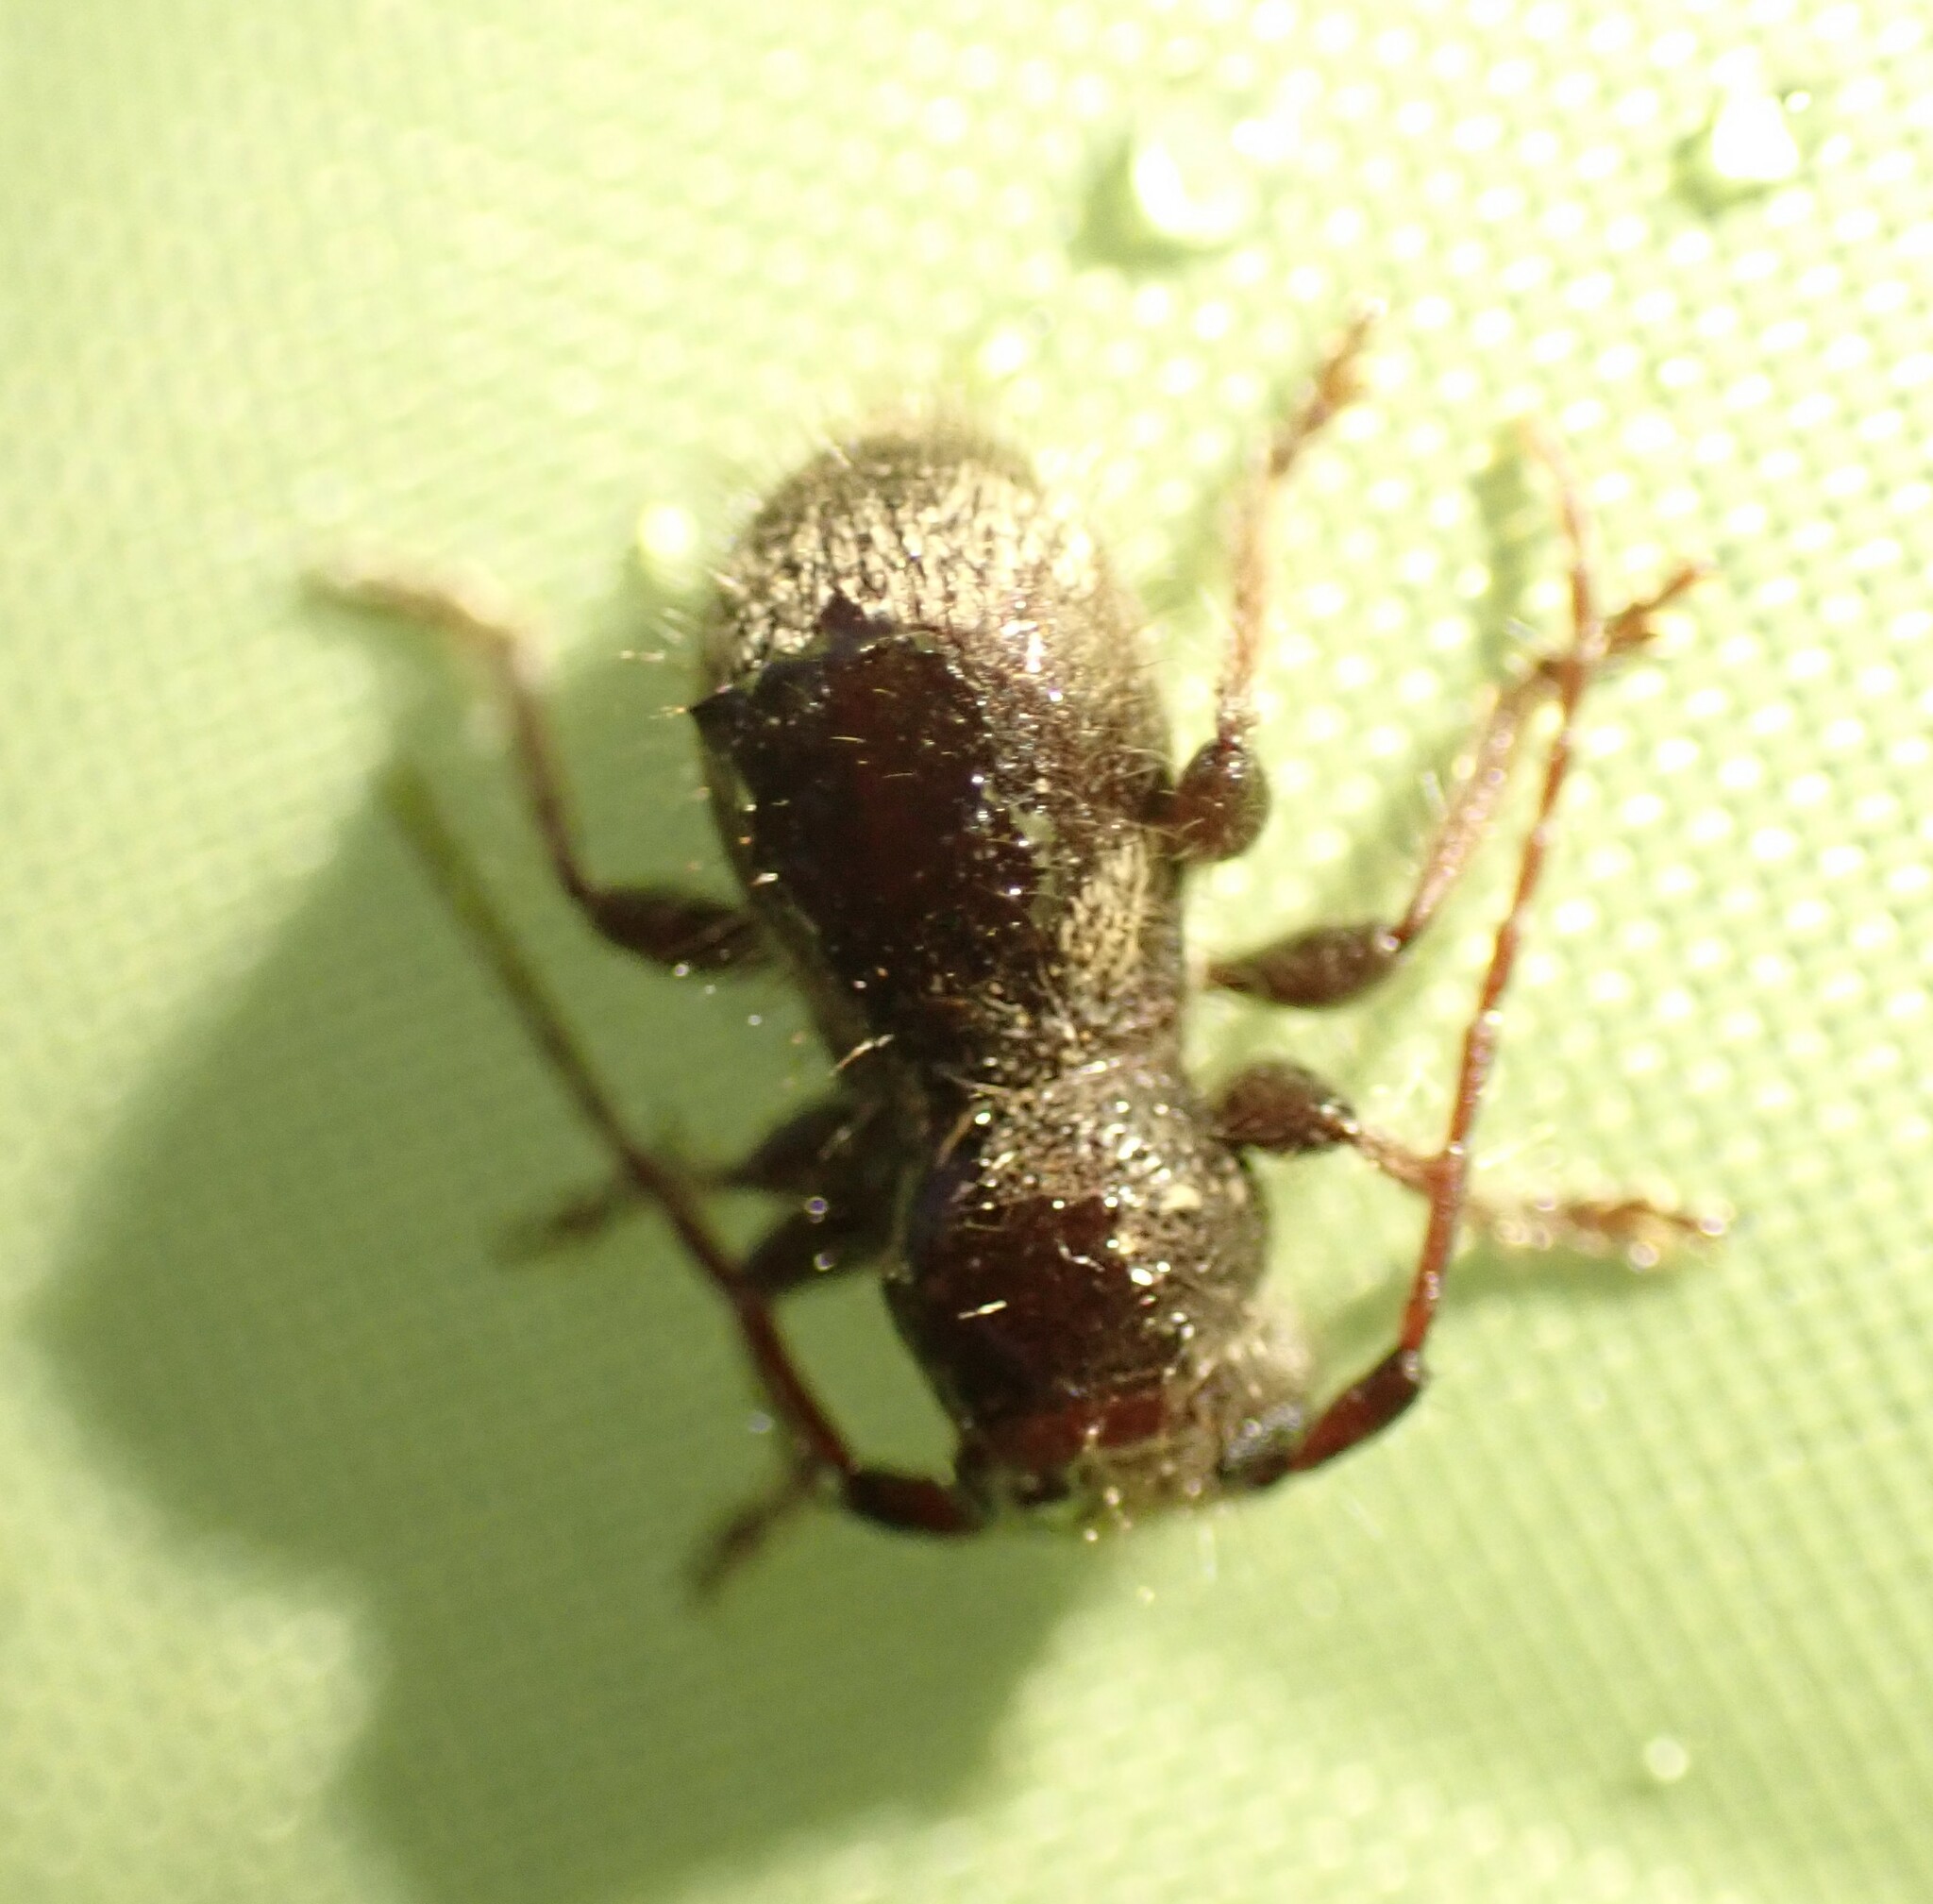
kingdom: Animalia
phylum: Arthropoda
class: Insecta
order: Coleoptera
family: Cerambycidae
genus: Ipochus
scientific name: Ipochus fasciatus
